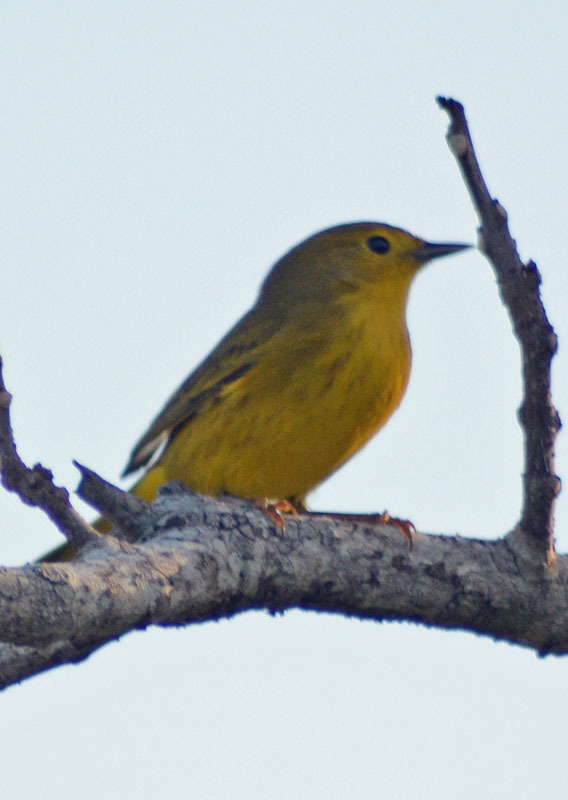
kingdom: Animalia
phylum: Chordata
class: Aves
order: Passeriformes
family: Parulidae
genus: Setophaga
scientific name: Setophaga petechia
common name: Yellow warbler
